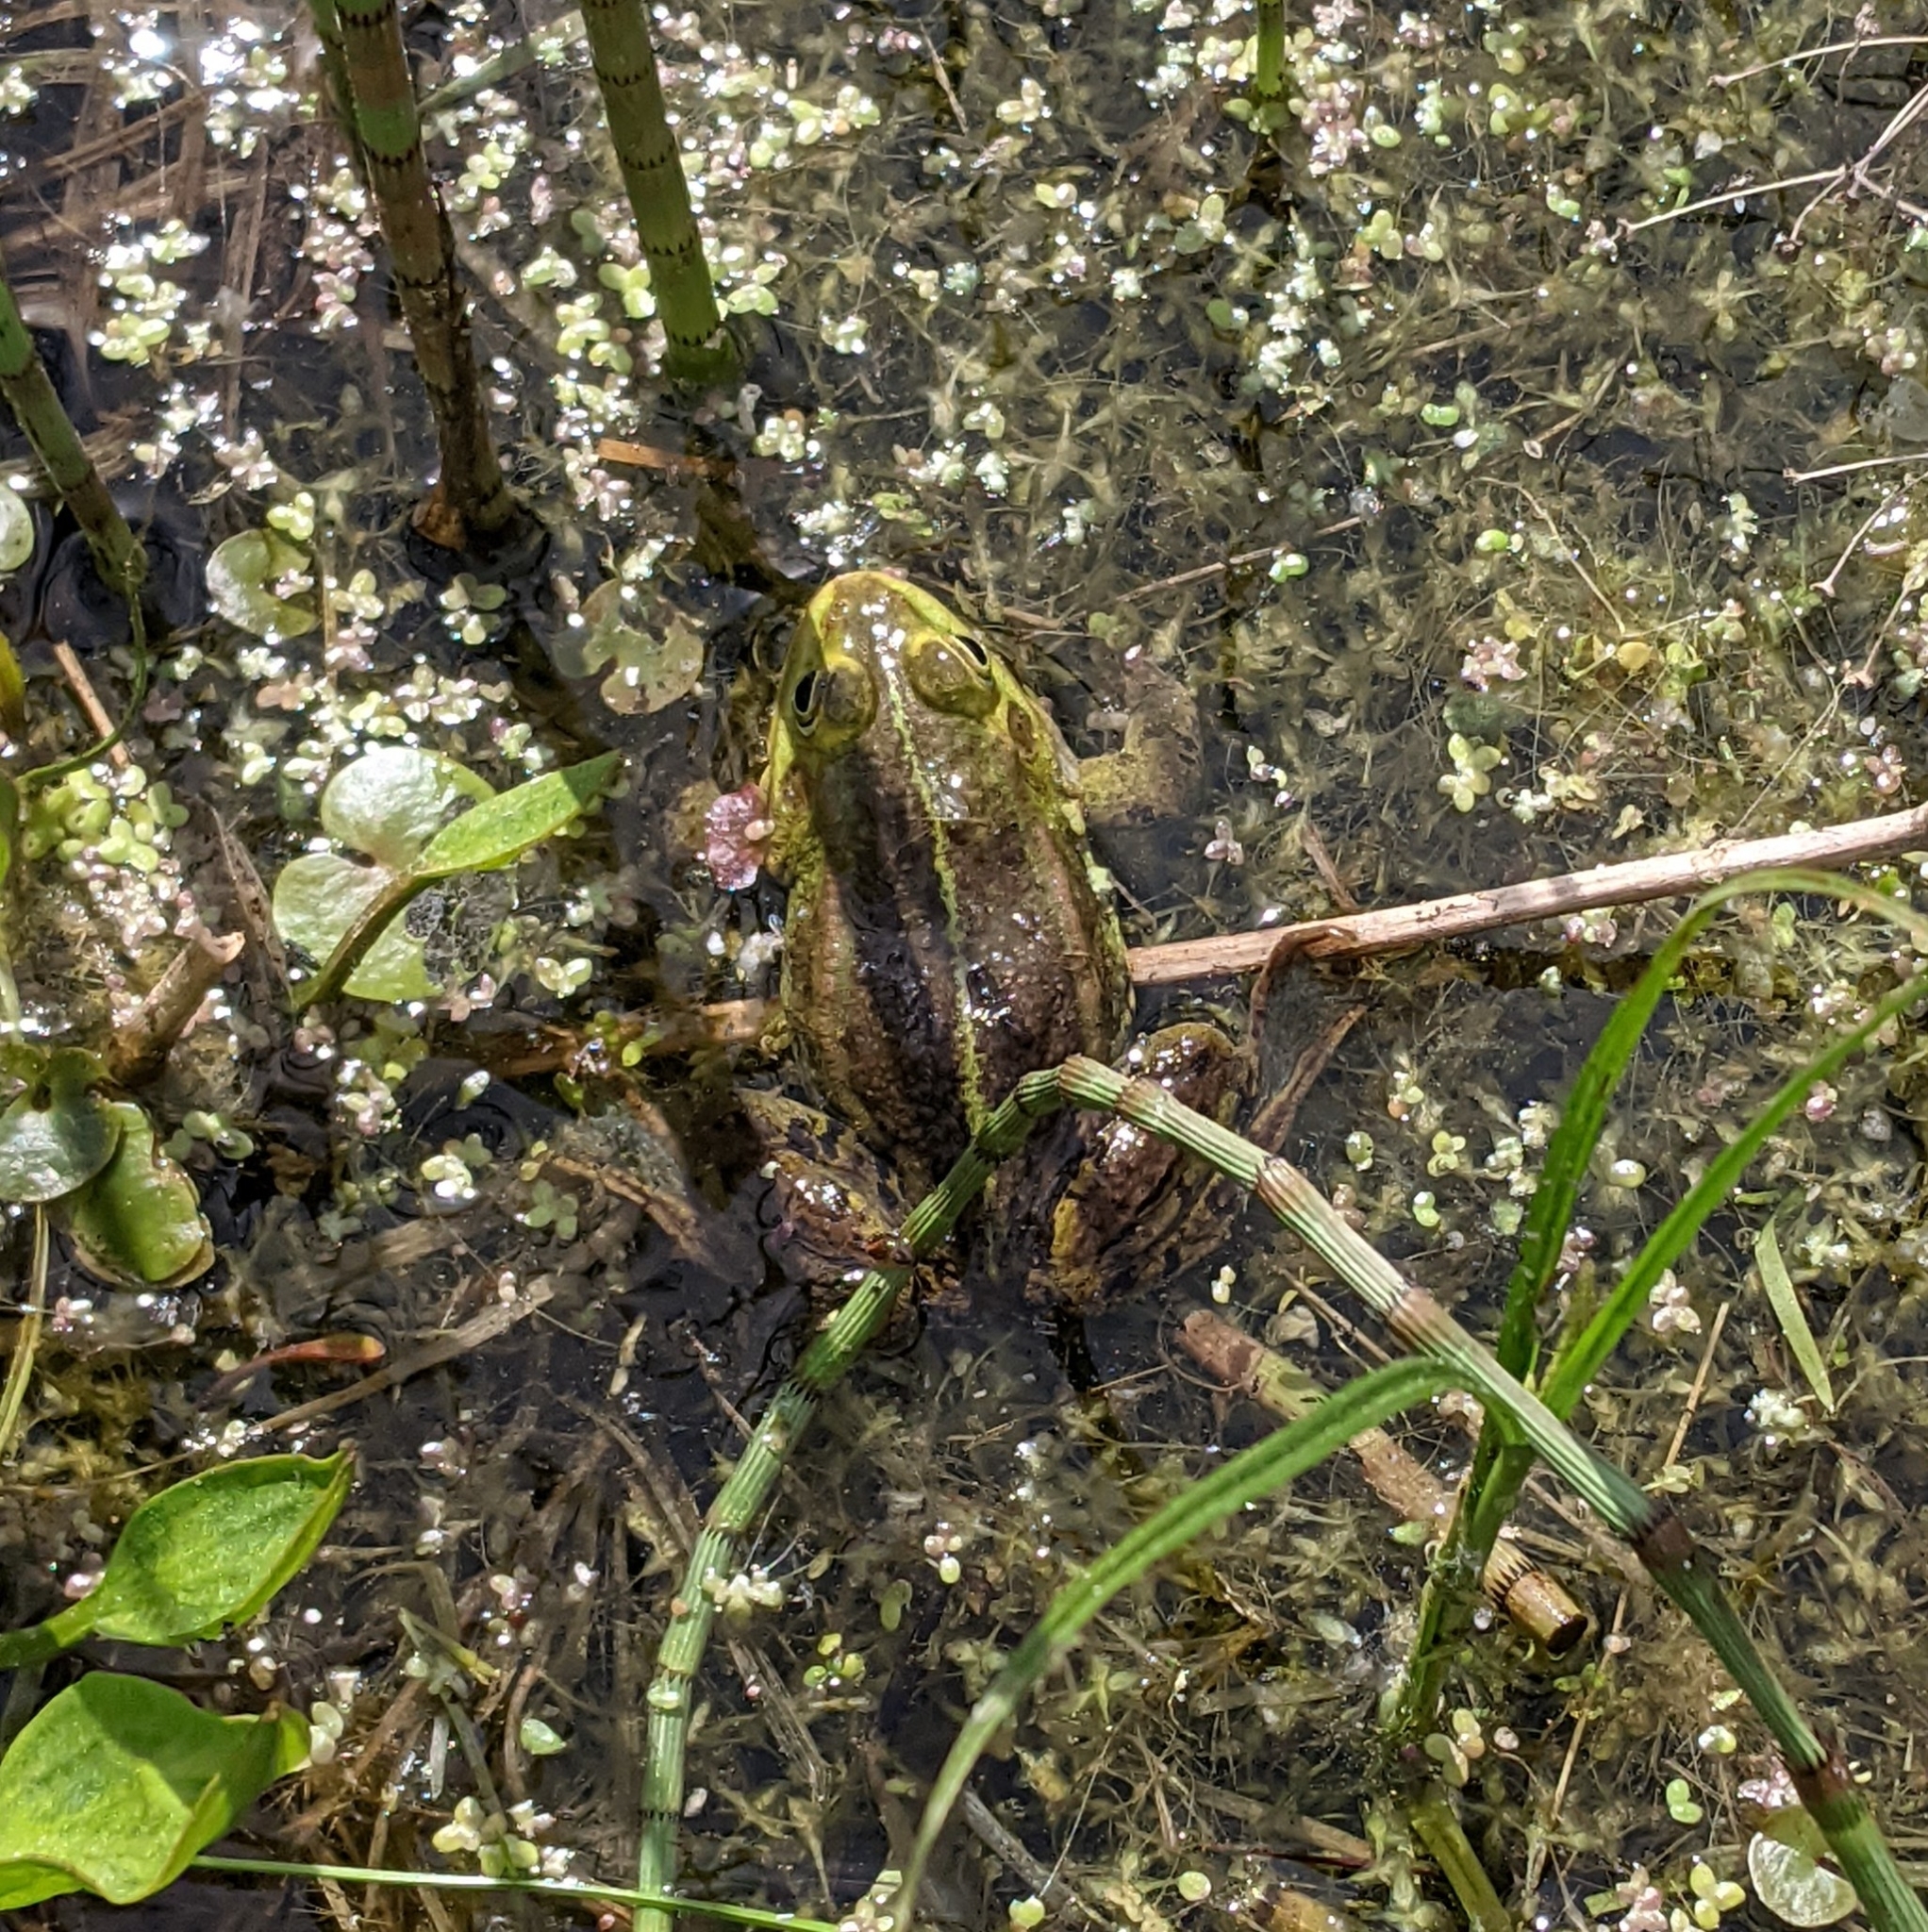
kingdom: Animalia
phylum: Chordata
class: Amphibia
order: Anura
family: Ranidae
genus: Pelophylax
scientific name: Pelophylax ridibundus
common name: Marsh frog
